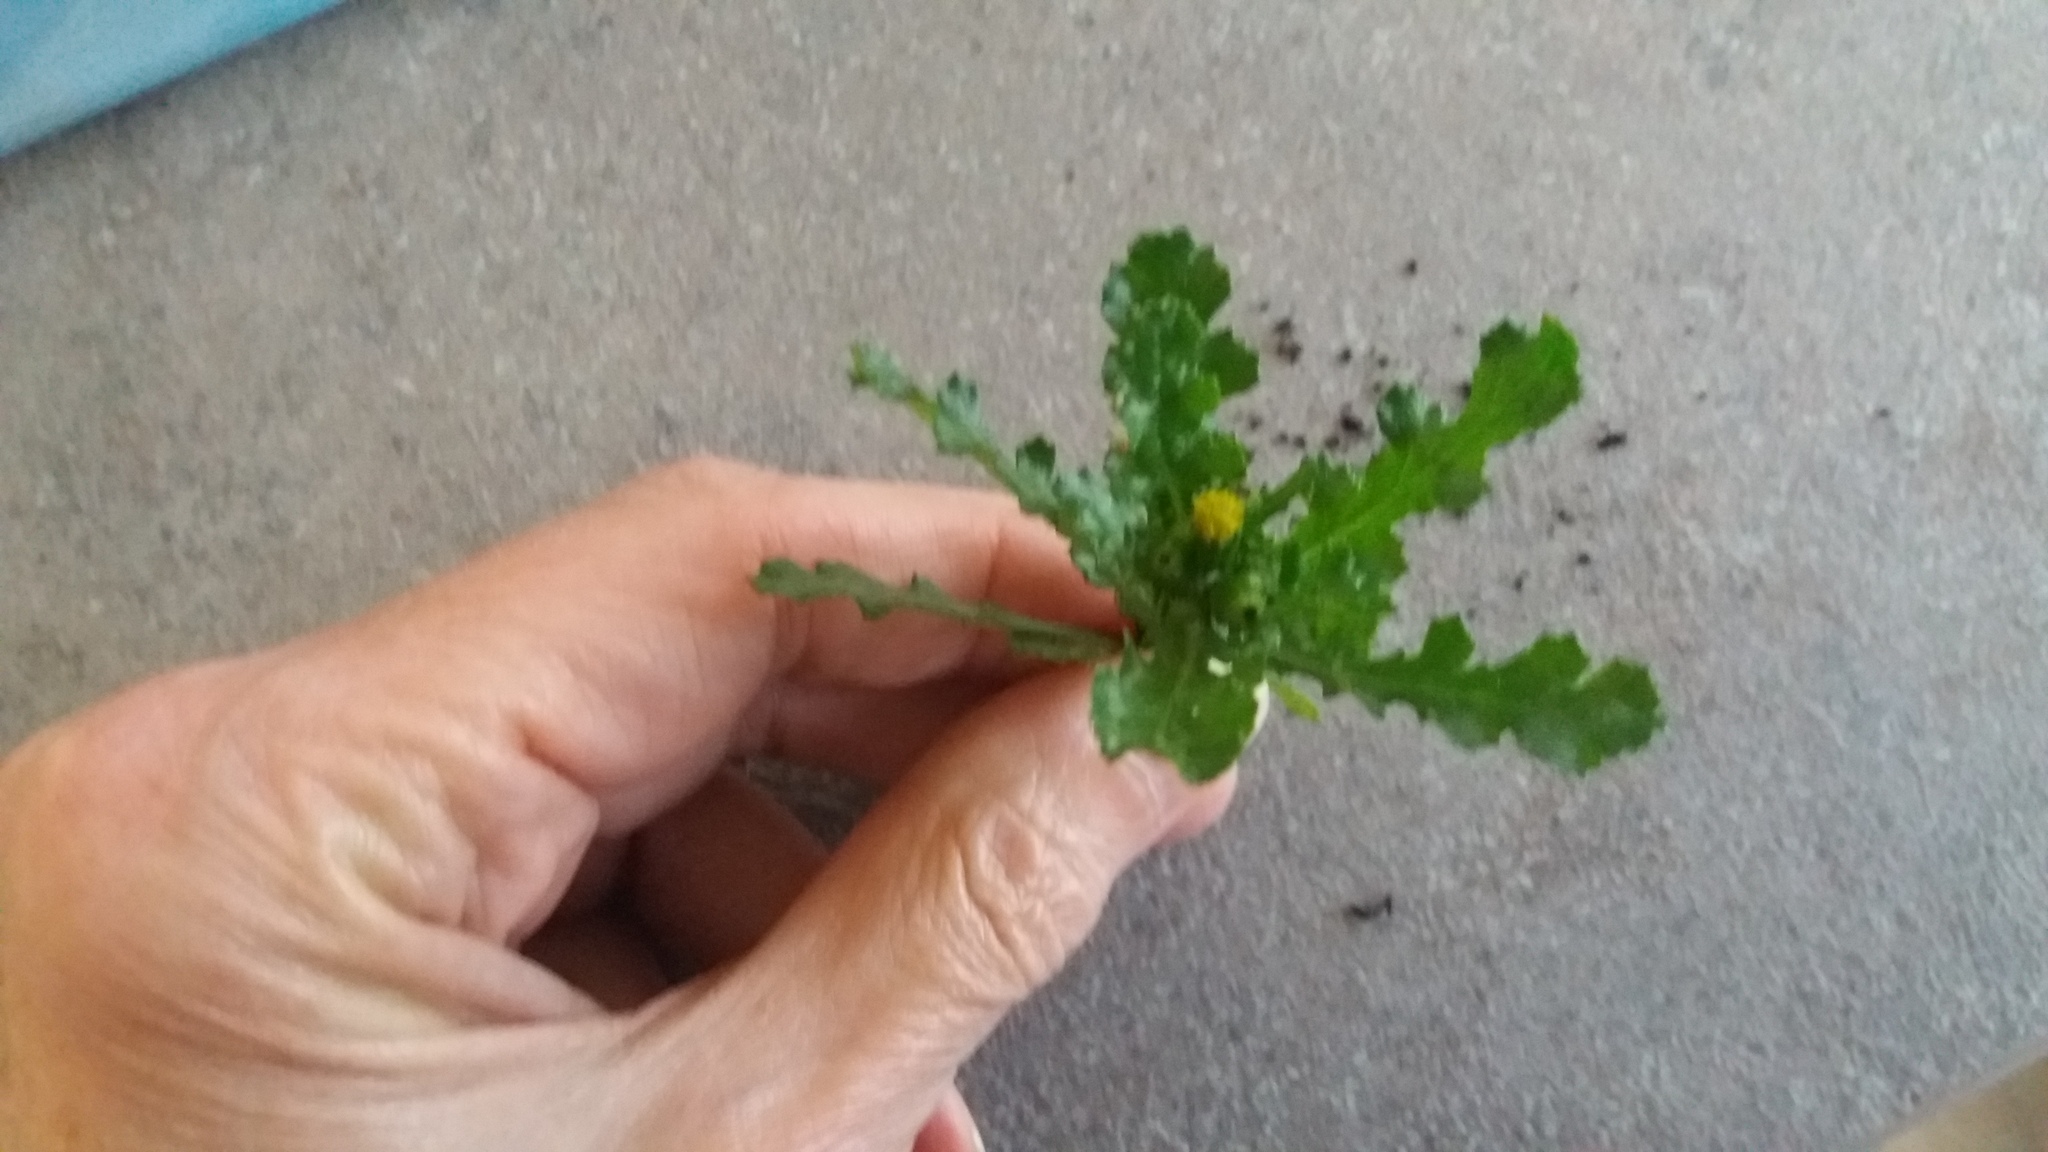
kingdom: Plantae
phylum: Tracheophyta
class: Magnoliopsida
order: Asterales
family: Asteraceae
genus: Senecio
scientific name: Senecio vulgaris
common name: Old-man-in-the-spring
